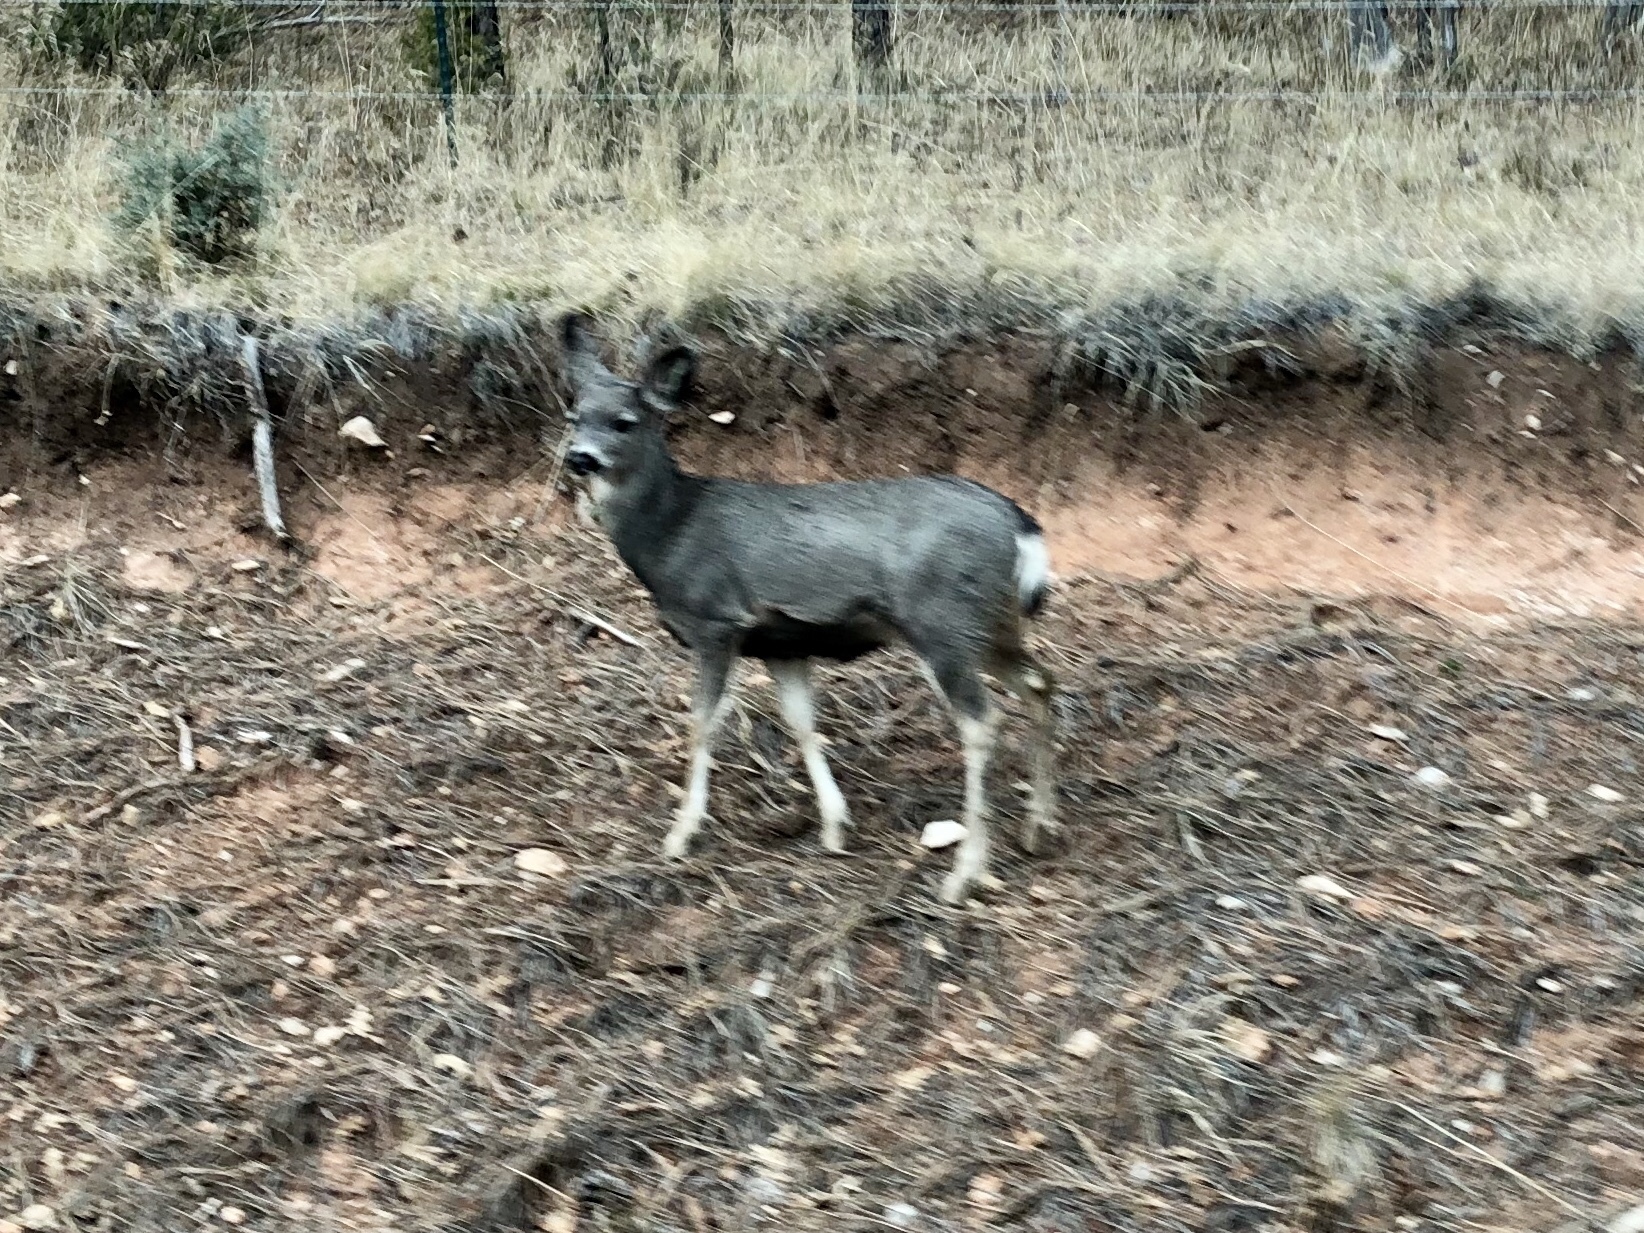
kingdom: Animalia
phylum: Chordata
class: Mammalia
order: Artiodactyla
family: Cervidae
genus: Odocoileus
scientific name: Odocoileus hemionus
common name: Mule deer
